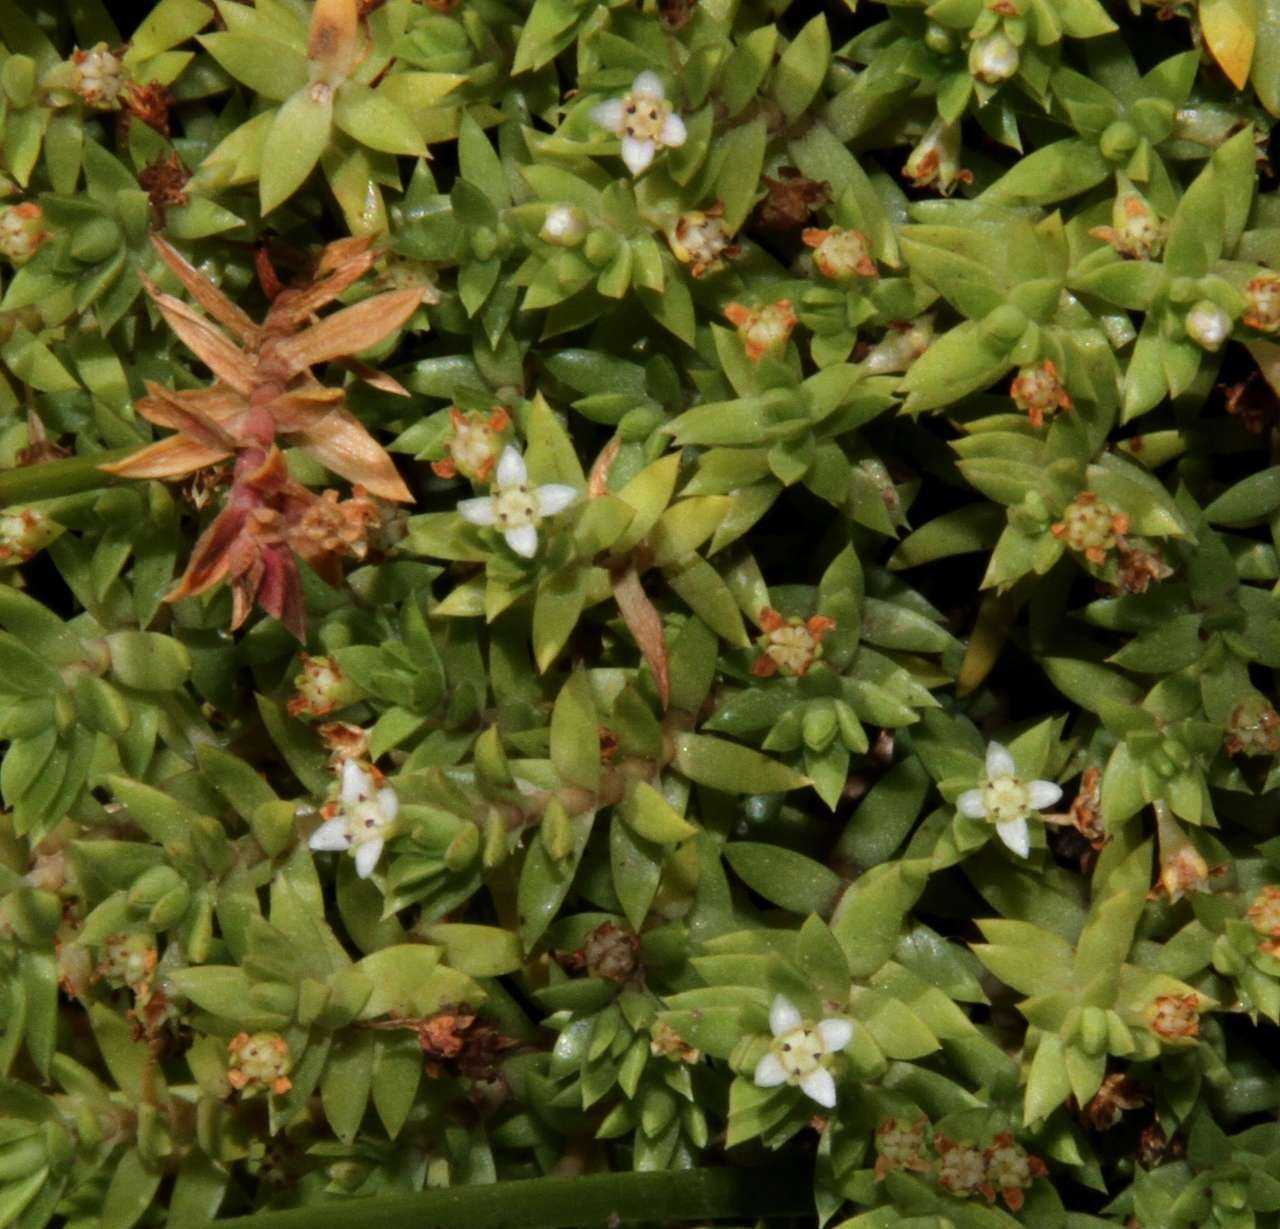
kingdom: Plantae
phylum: Tracheophyta
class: Magnoliopsida
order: Saxifragales
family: Crassulaceae
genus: Crassula
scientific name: Crassula helmsii
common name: New zealand pigmyweed
